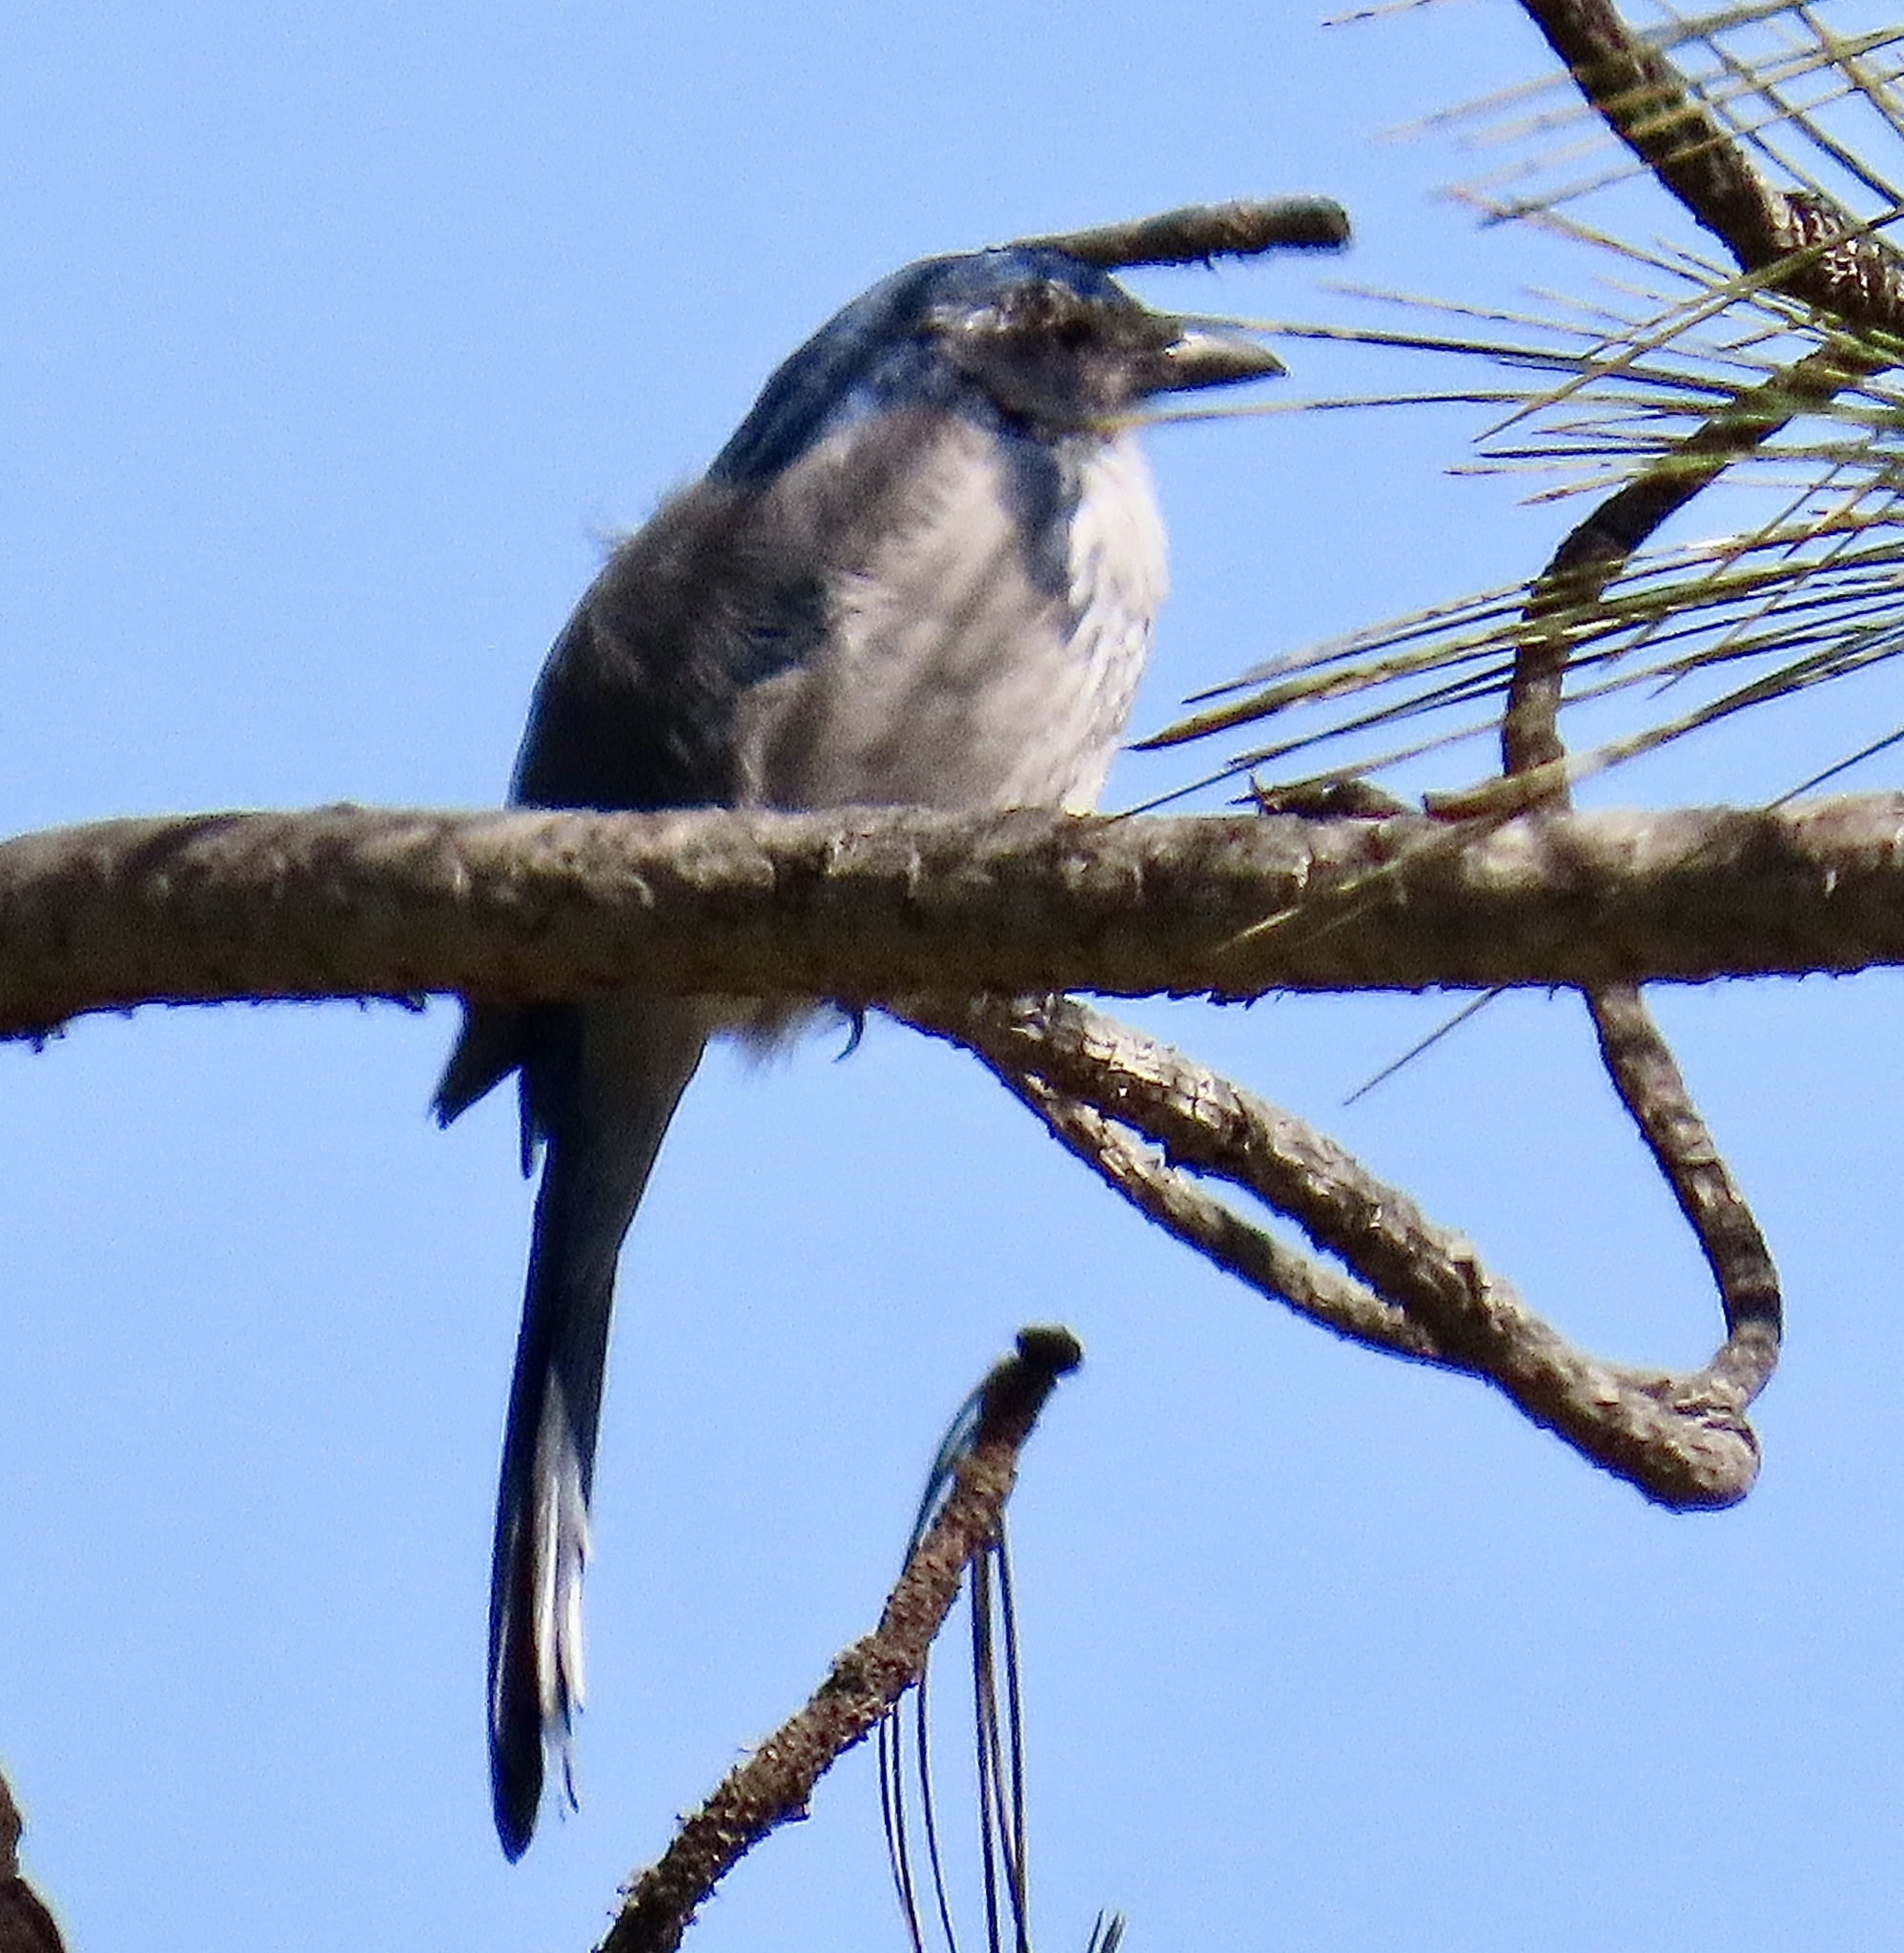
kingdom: Animalia
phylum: Chordata
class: Aves
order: Passeriformes
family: Corvidae
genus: Aphelocoma
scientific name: Aphelocoma californica
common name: California scrub-jay
